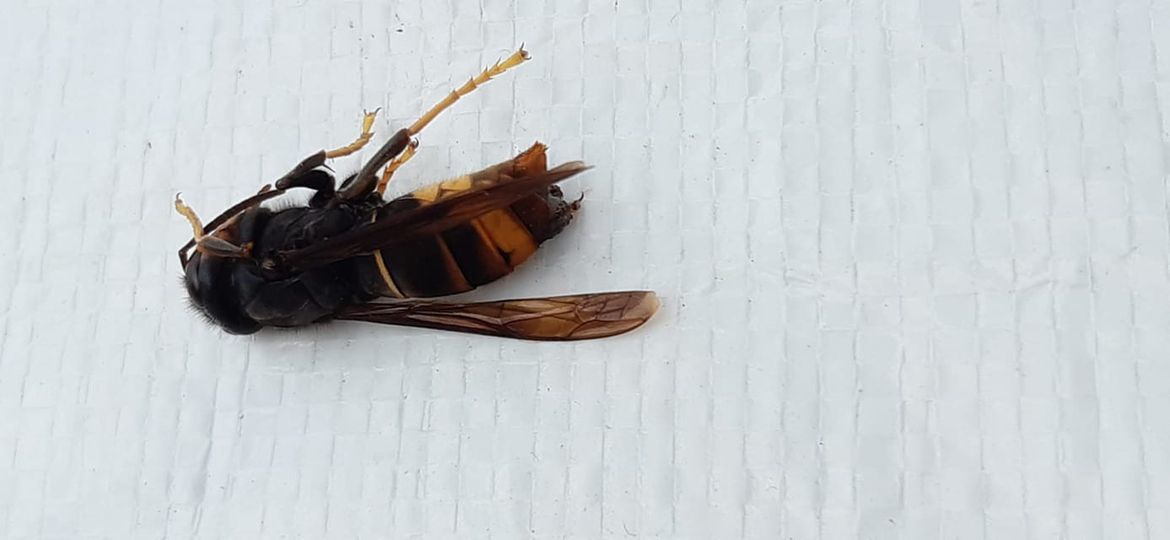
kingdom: Animalia
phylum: Arthropoda
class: Insecta
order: Hymenoptera
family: Vespidae
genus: Vespa
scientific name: Vespa velutina
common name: Asian hornet
